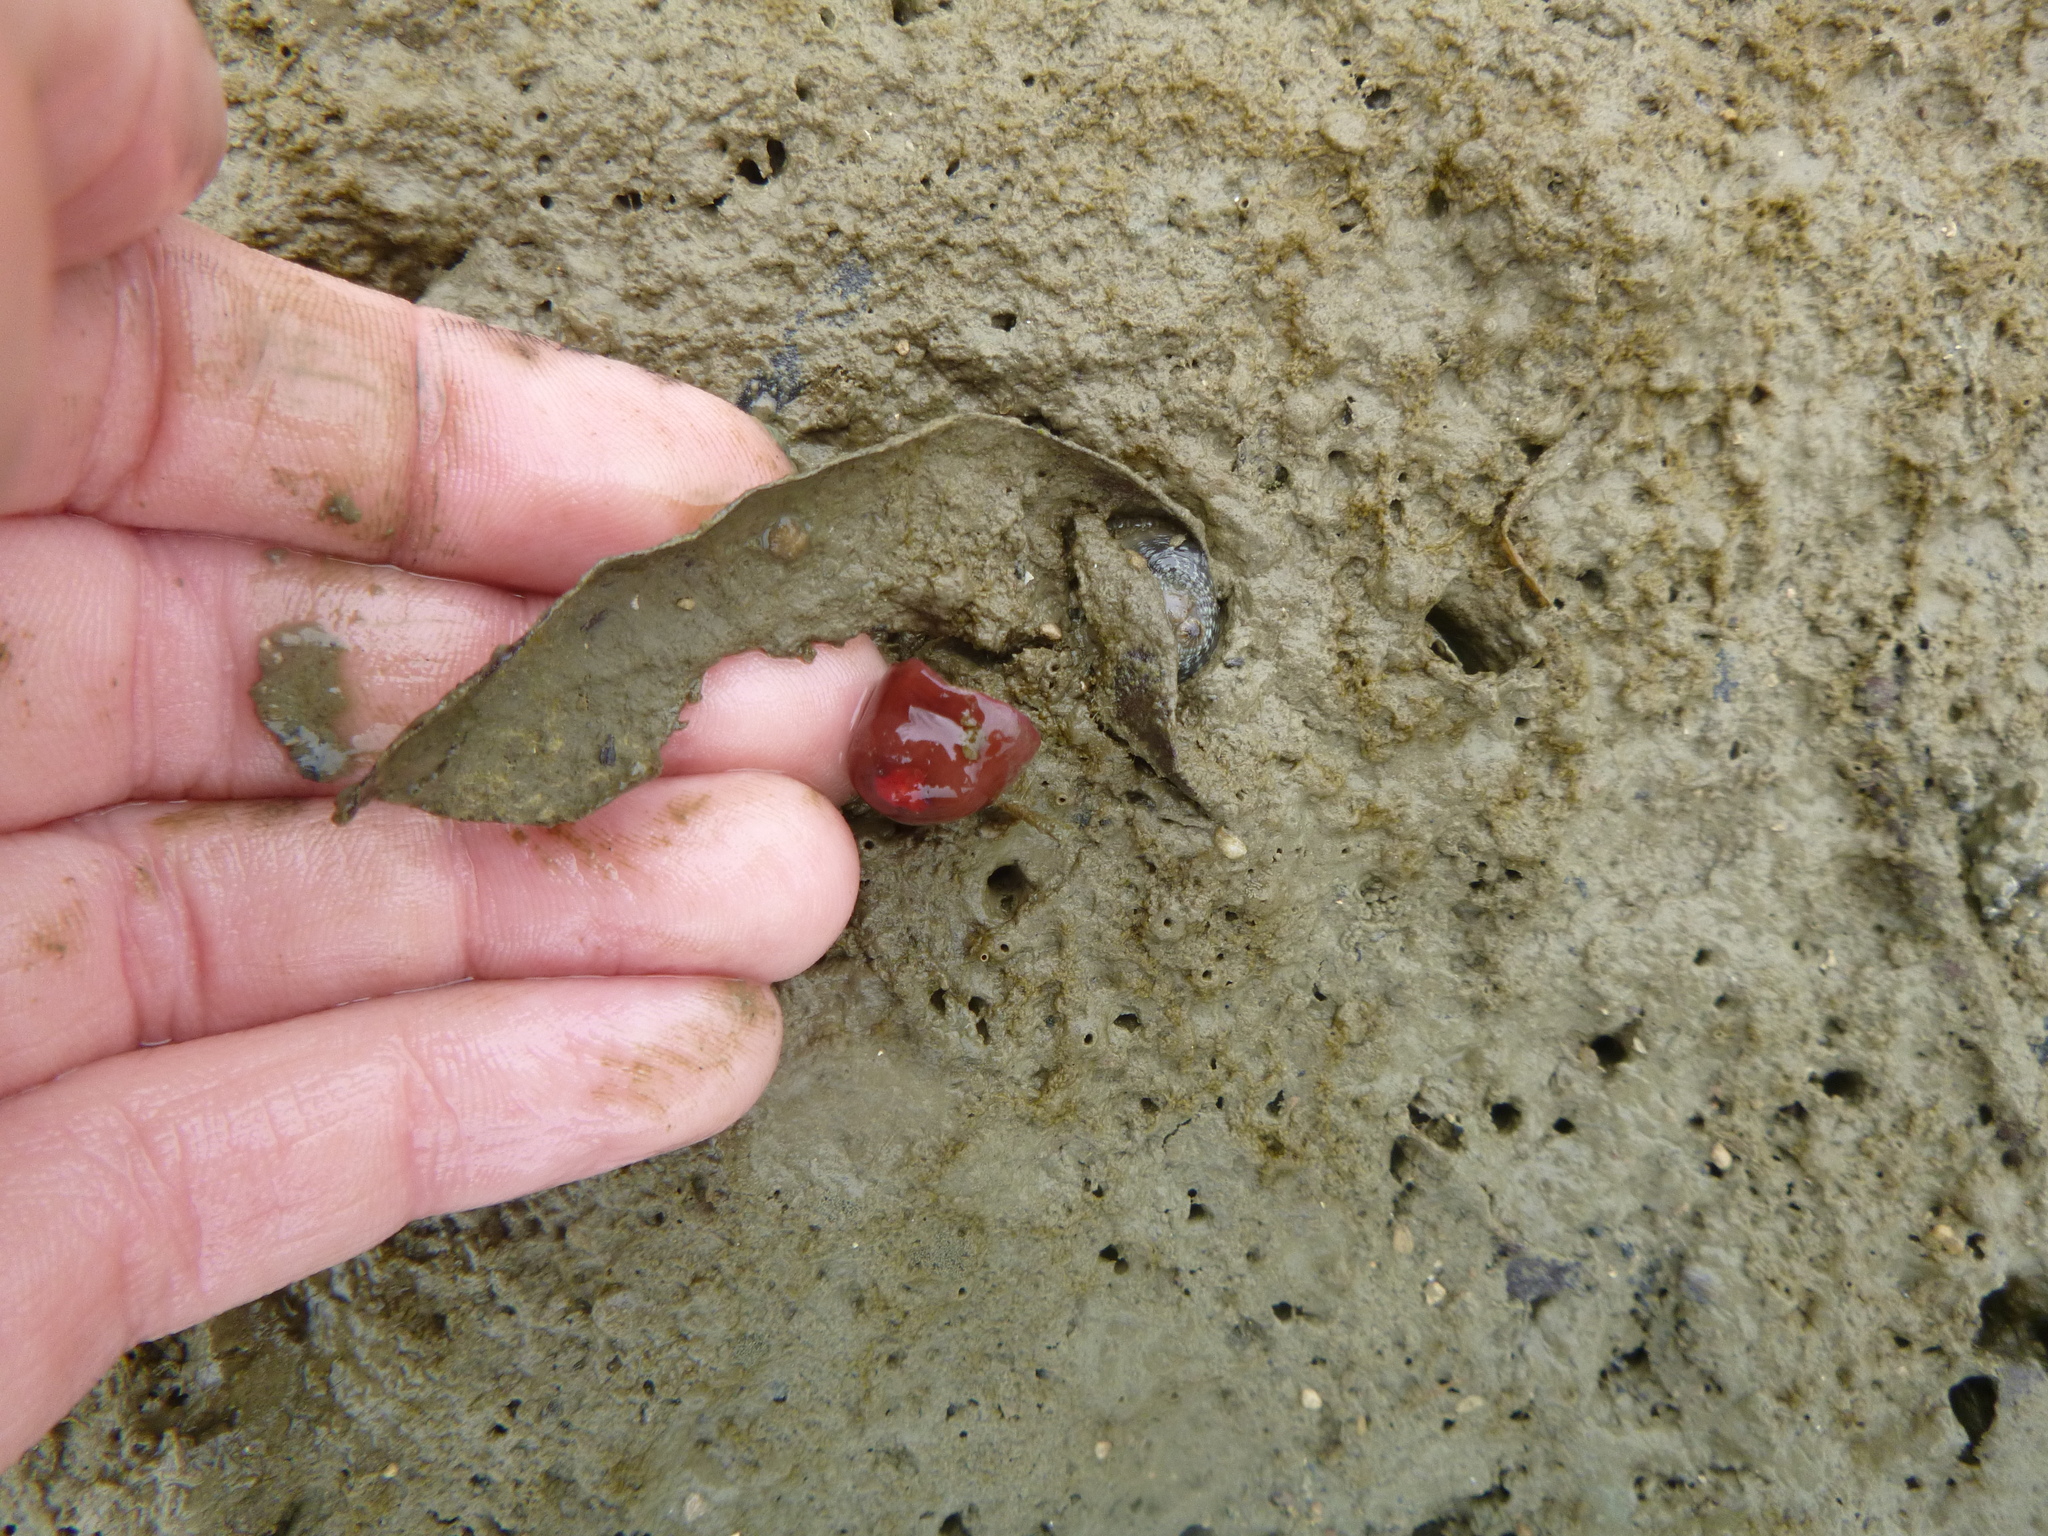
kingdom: Animalia
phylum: Cnidaria
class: Anthozoa
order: Actiniaria
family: Actiniidae
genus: Actinia
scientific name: Actinia tenebrosa
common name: Waratah anemone
